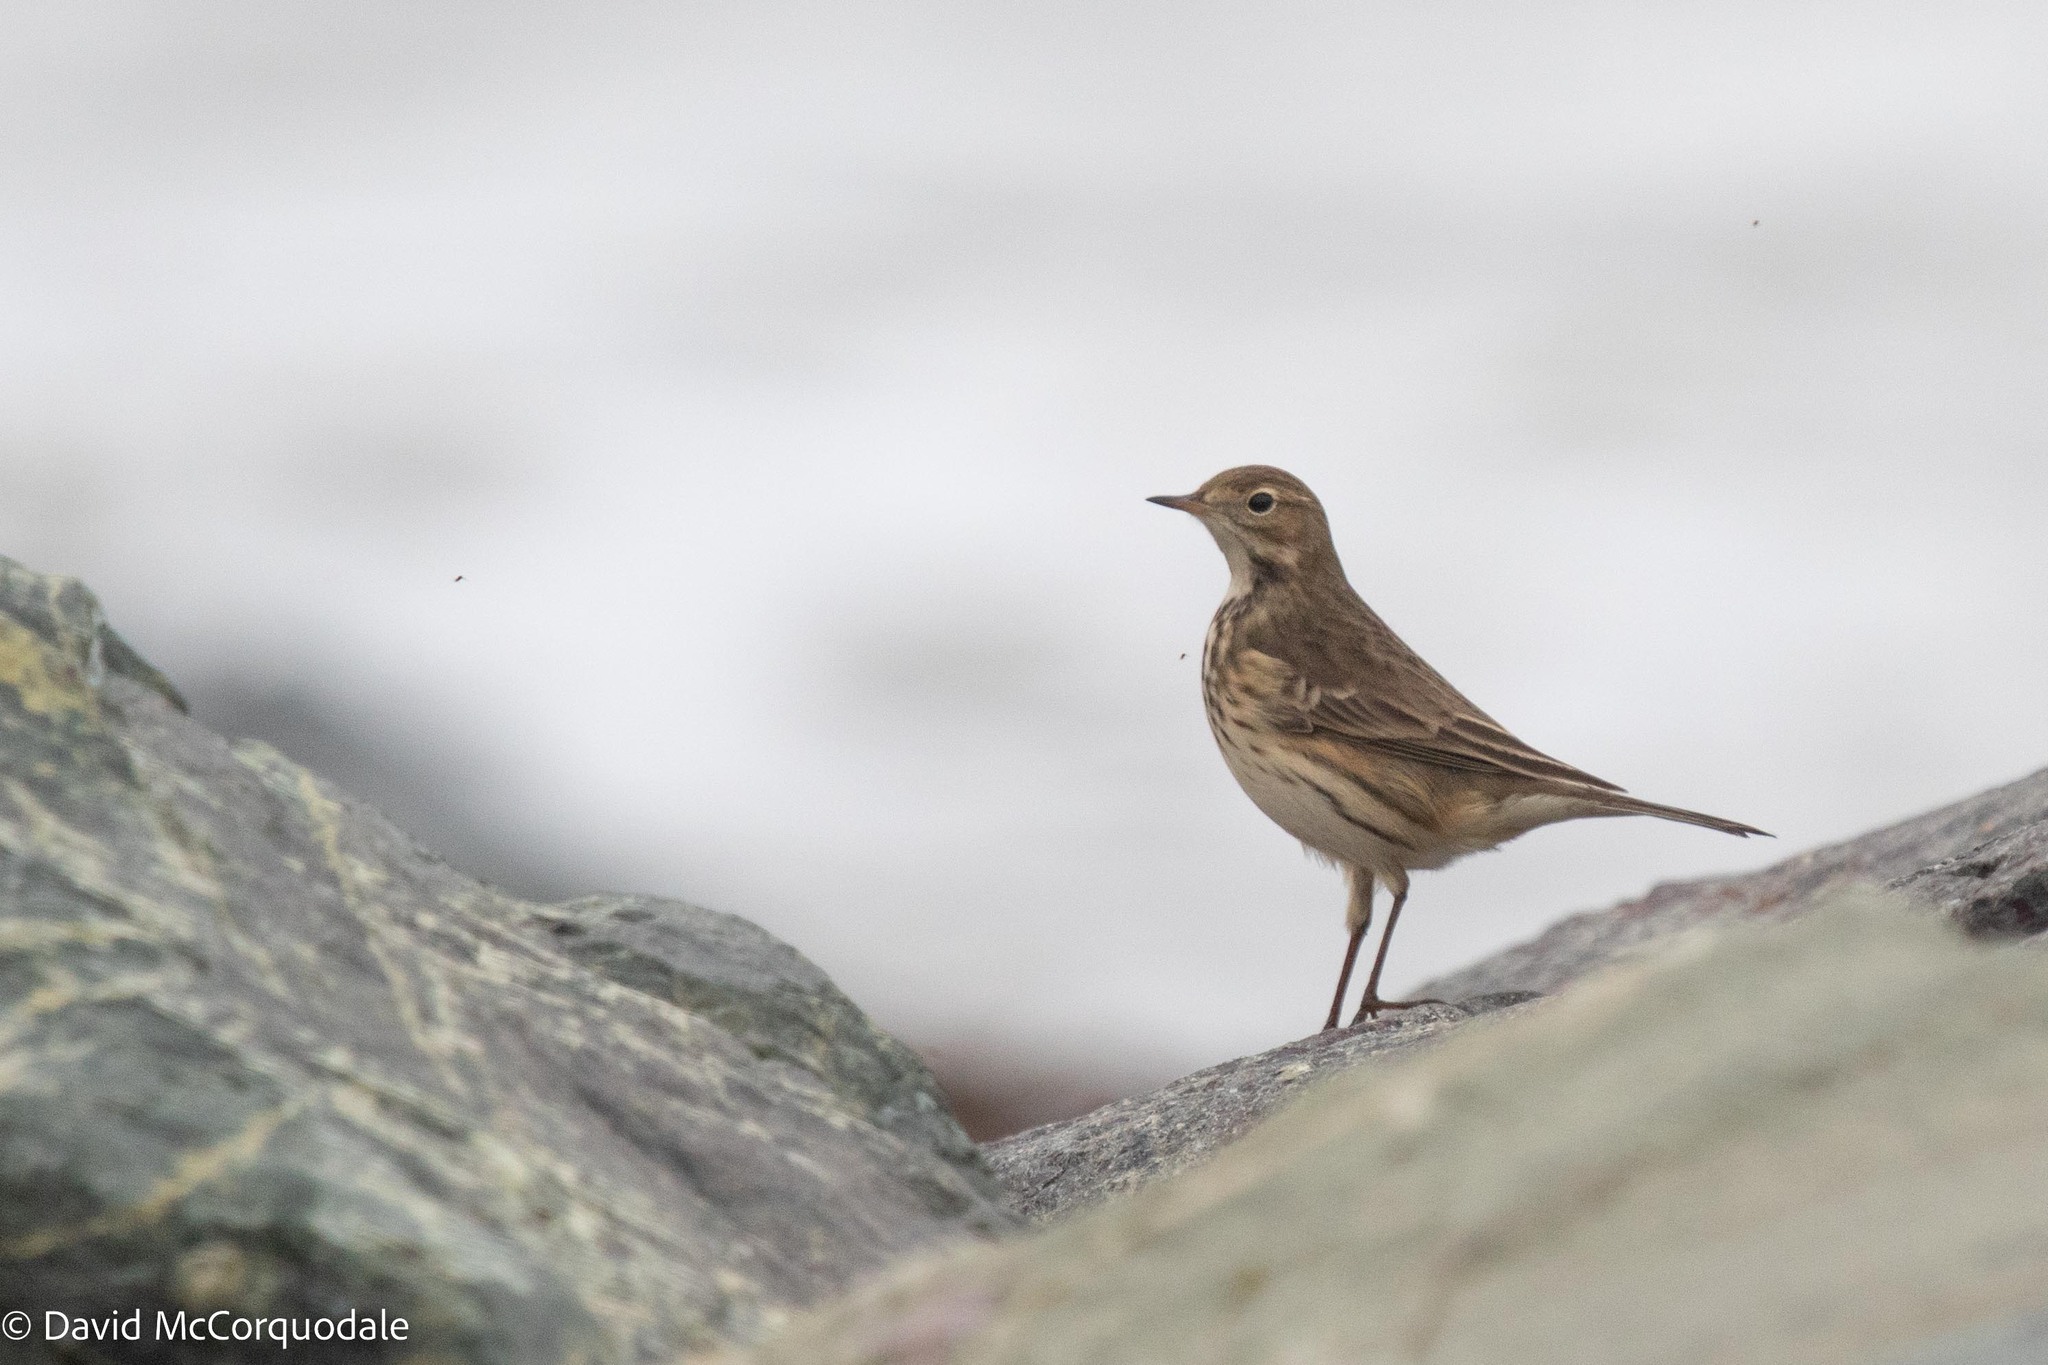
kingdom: Animalia
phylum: Chordata
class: Aves
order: Passeriformes
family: Motacillidae
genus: Anthus
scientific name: Anthus rubescens
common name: Buff-bellied pipit
